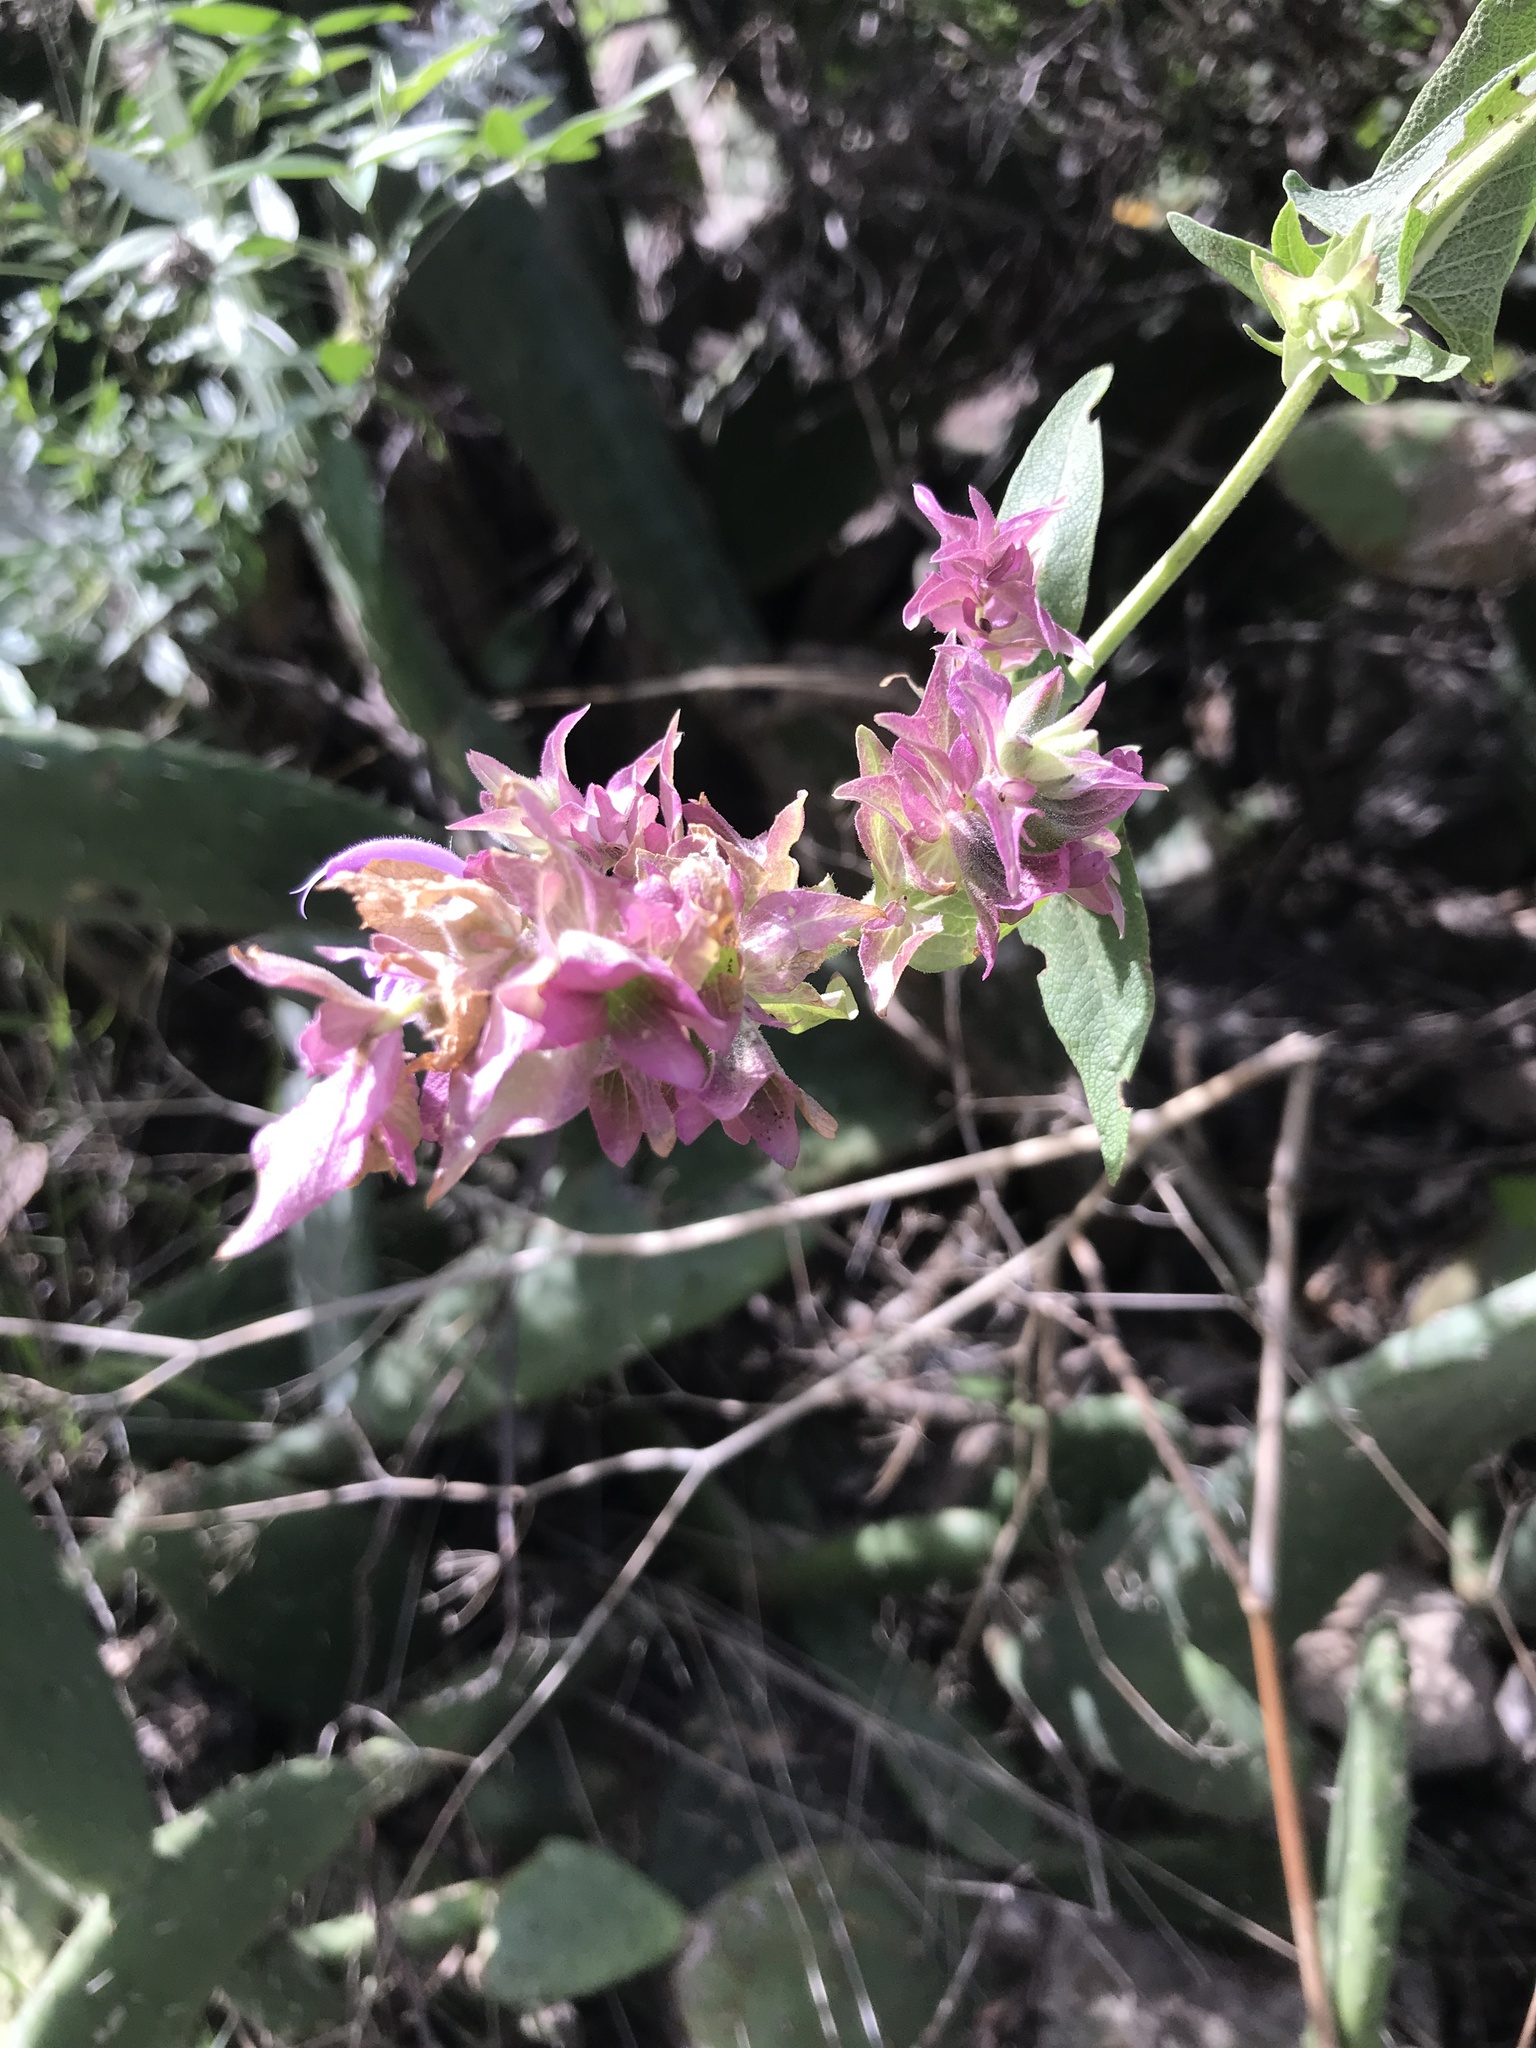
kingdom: Plantae
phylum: Tracheophyta
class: Magnoliopsida
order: Lamiales
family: Lamiaceae
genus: Salvia
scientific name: Salvia canariensis
